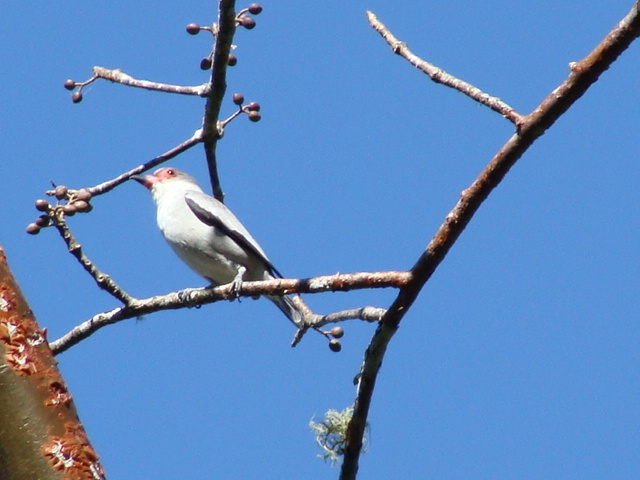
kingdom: Animalia
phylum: Chordata
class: Aves
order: Passeriformes
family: Cotingidae
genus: Tityra
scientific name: Tityra semifasciata
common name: Masked tityra
